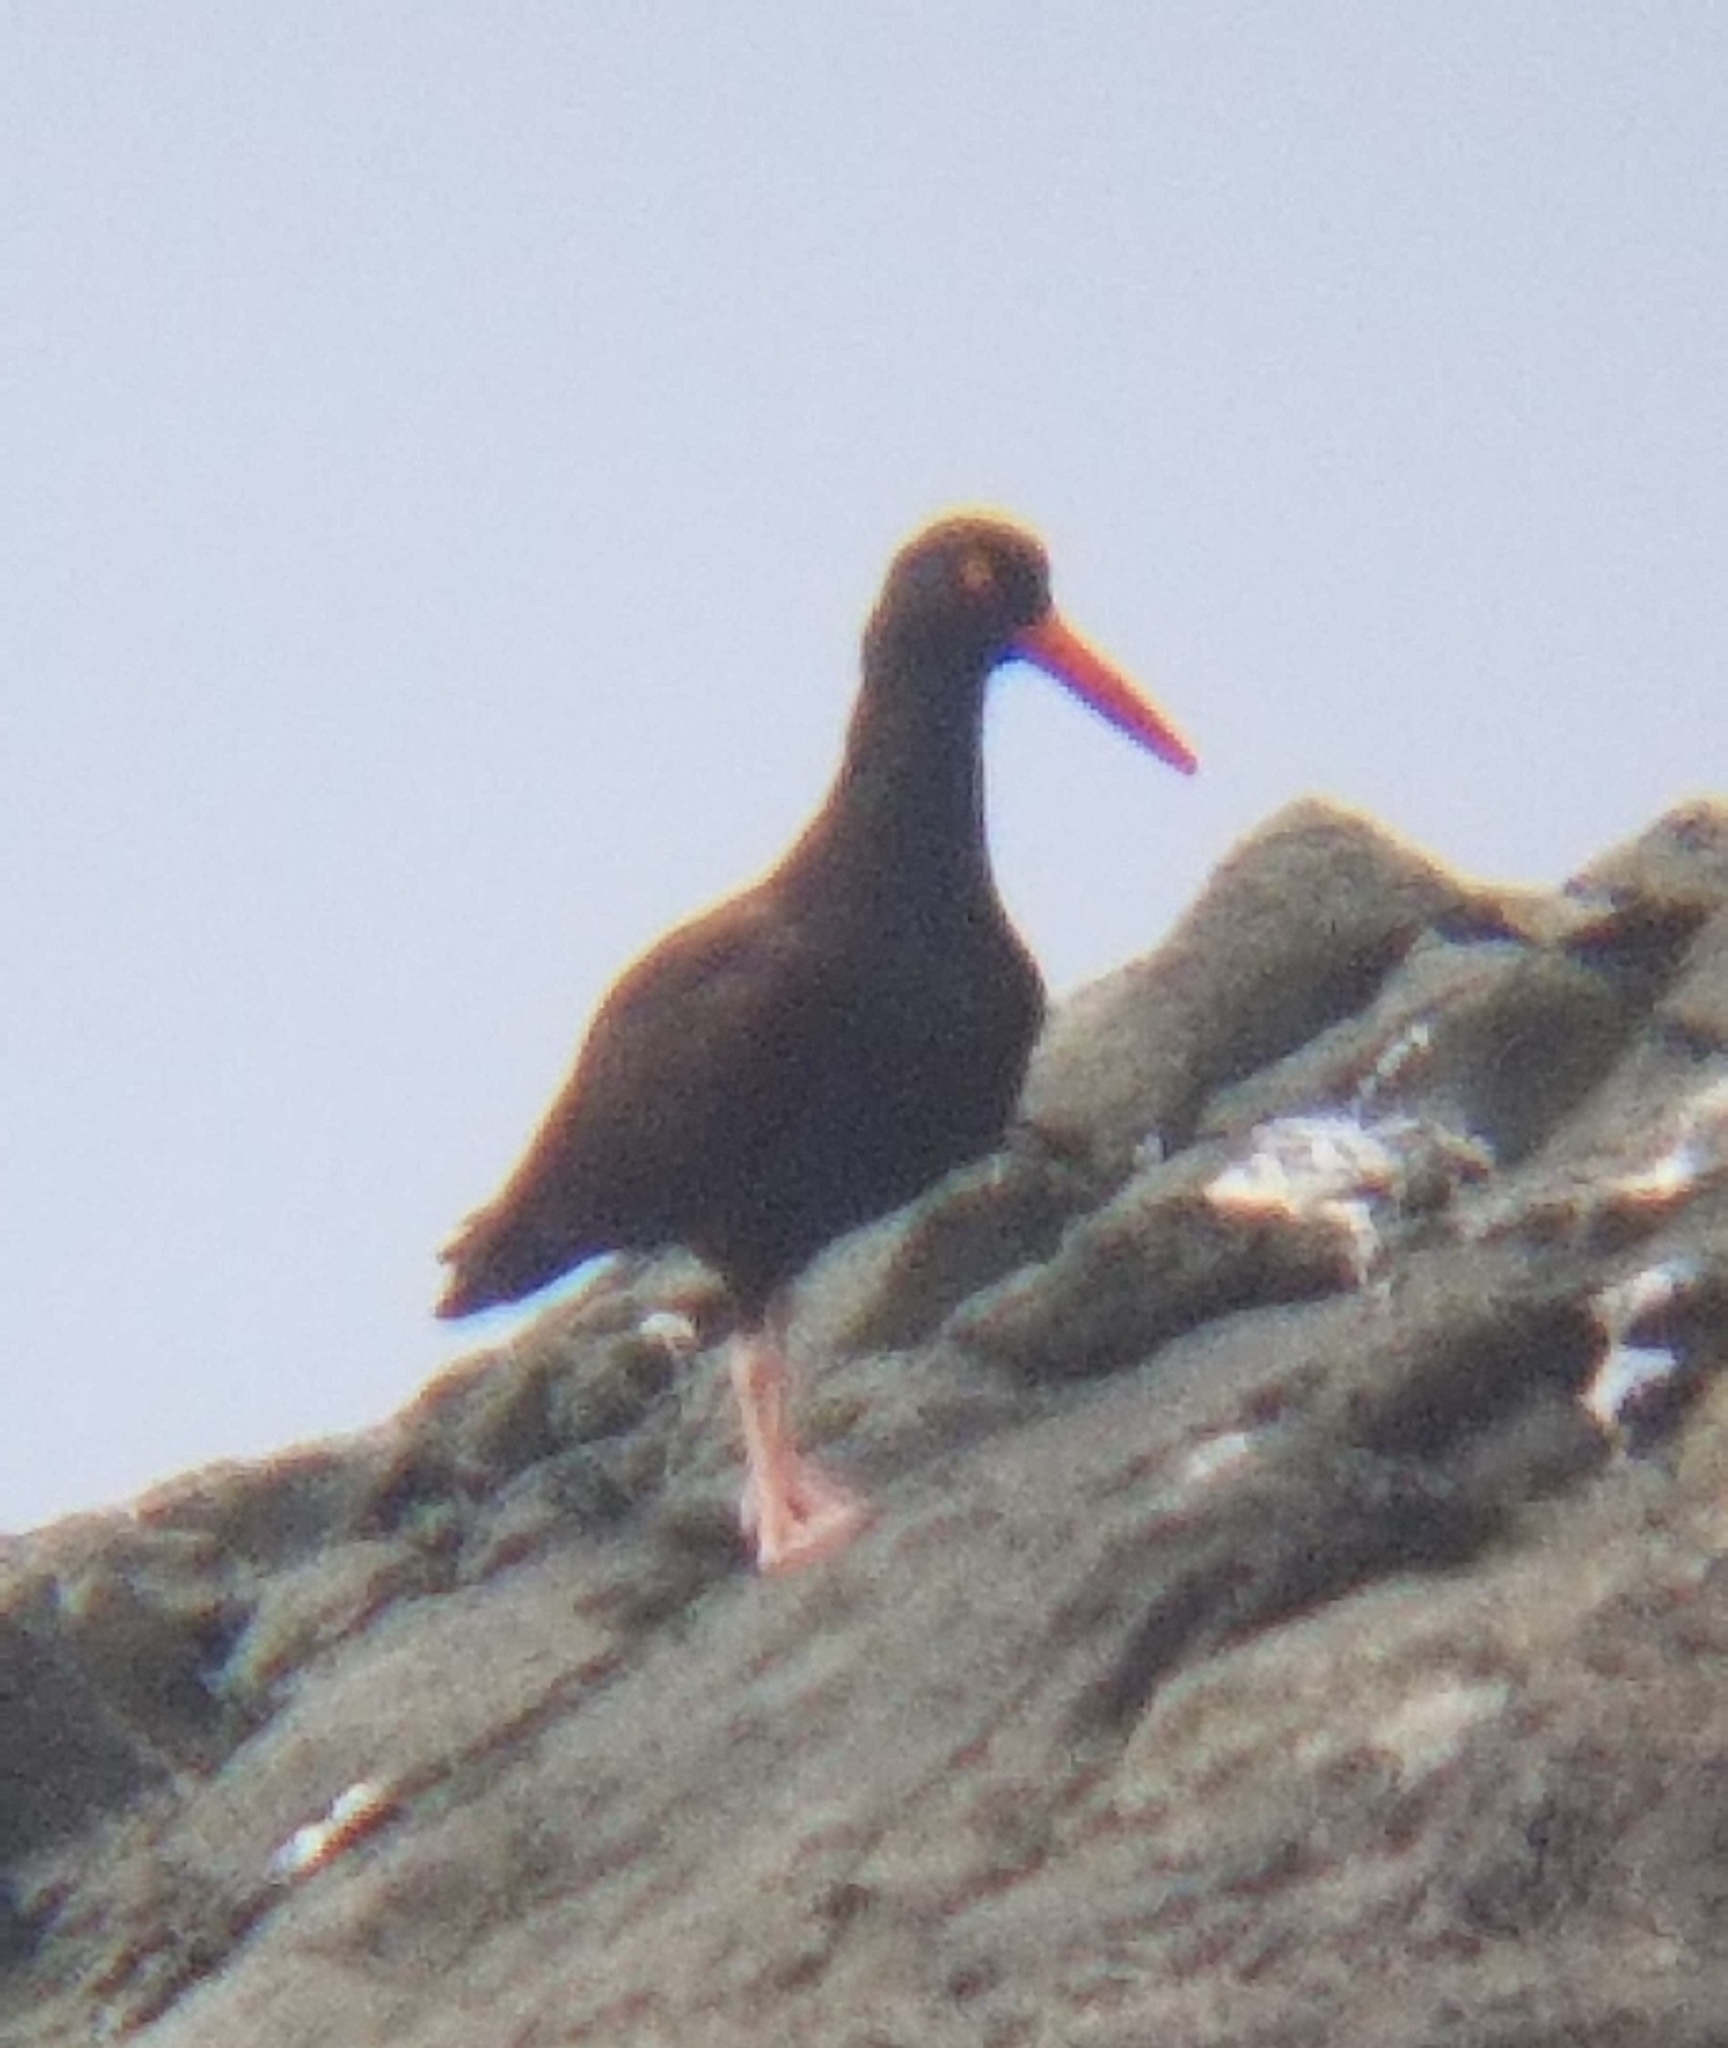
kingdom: Animalia
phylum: Chordata
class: Aves
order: Charadriiformes
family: Haematopodidae
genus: Haematopus
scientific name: Haematopus bachmani
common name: Black oystercatcher
